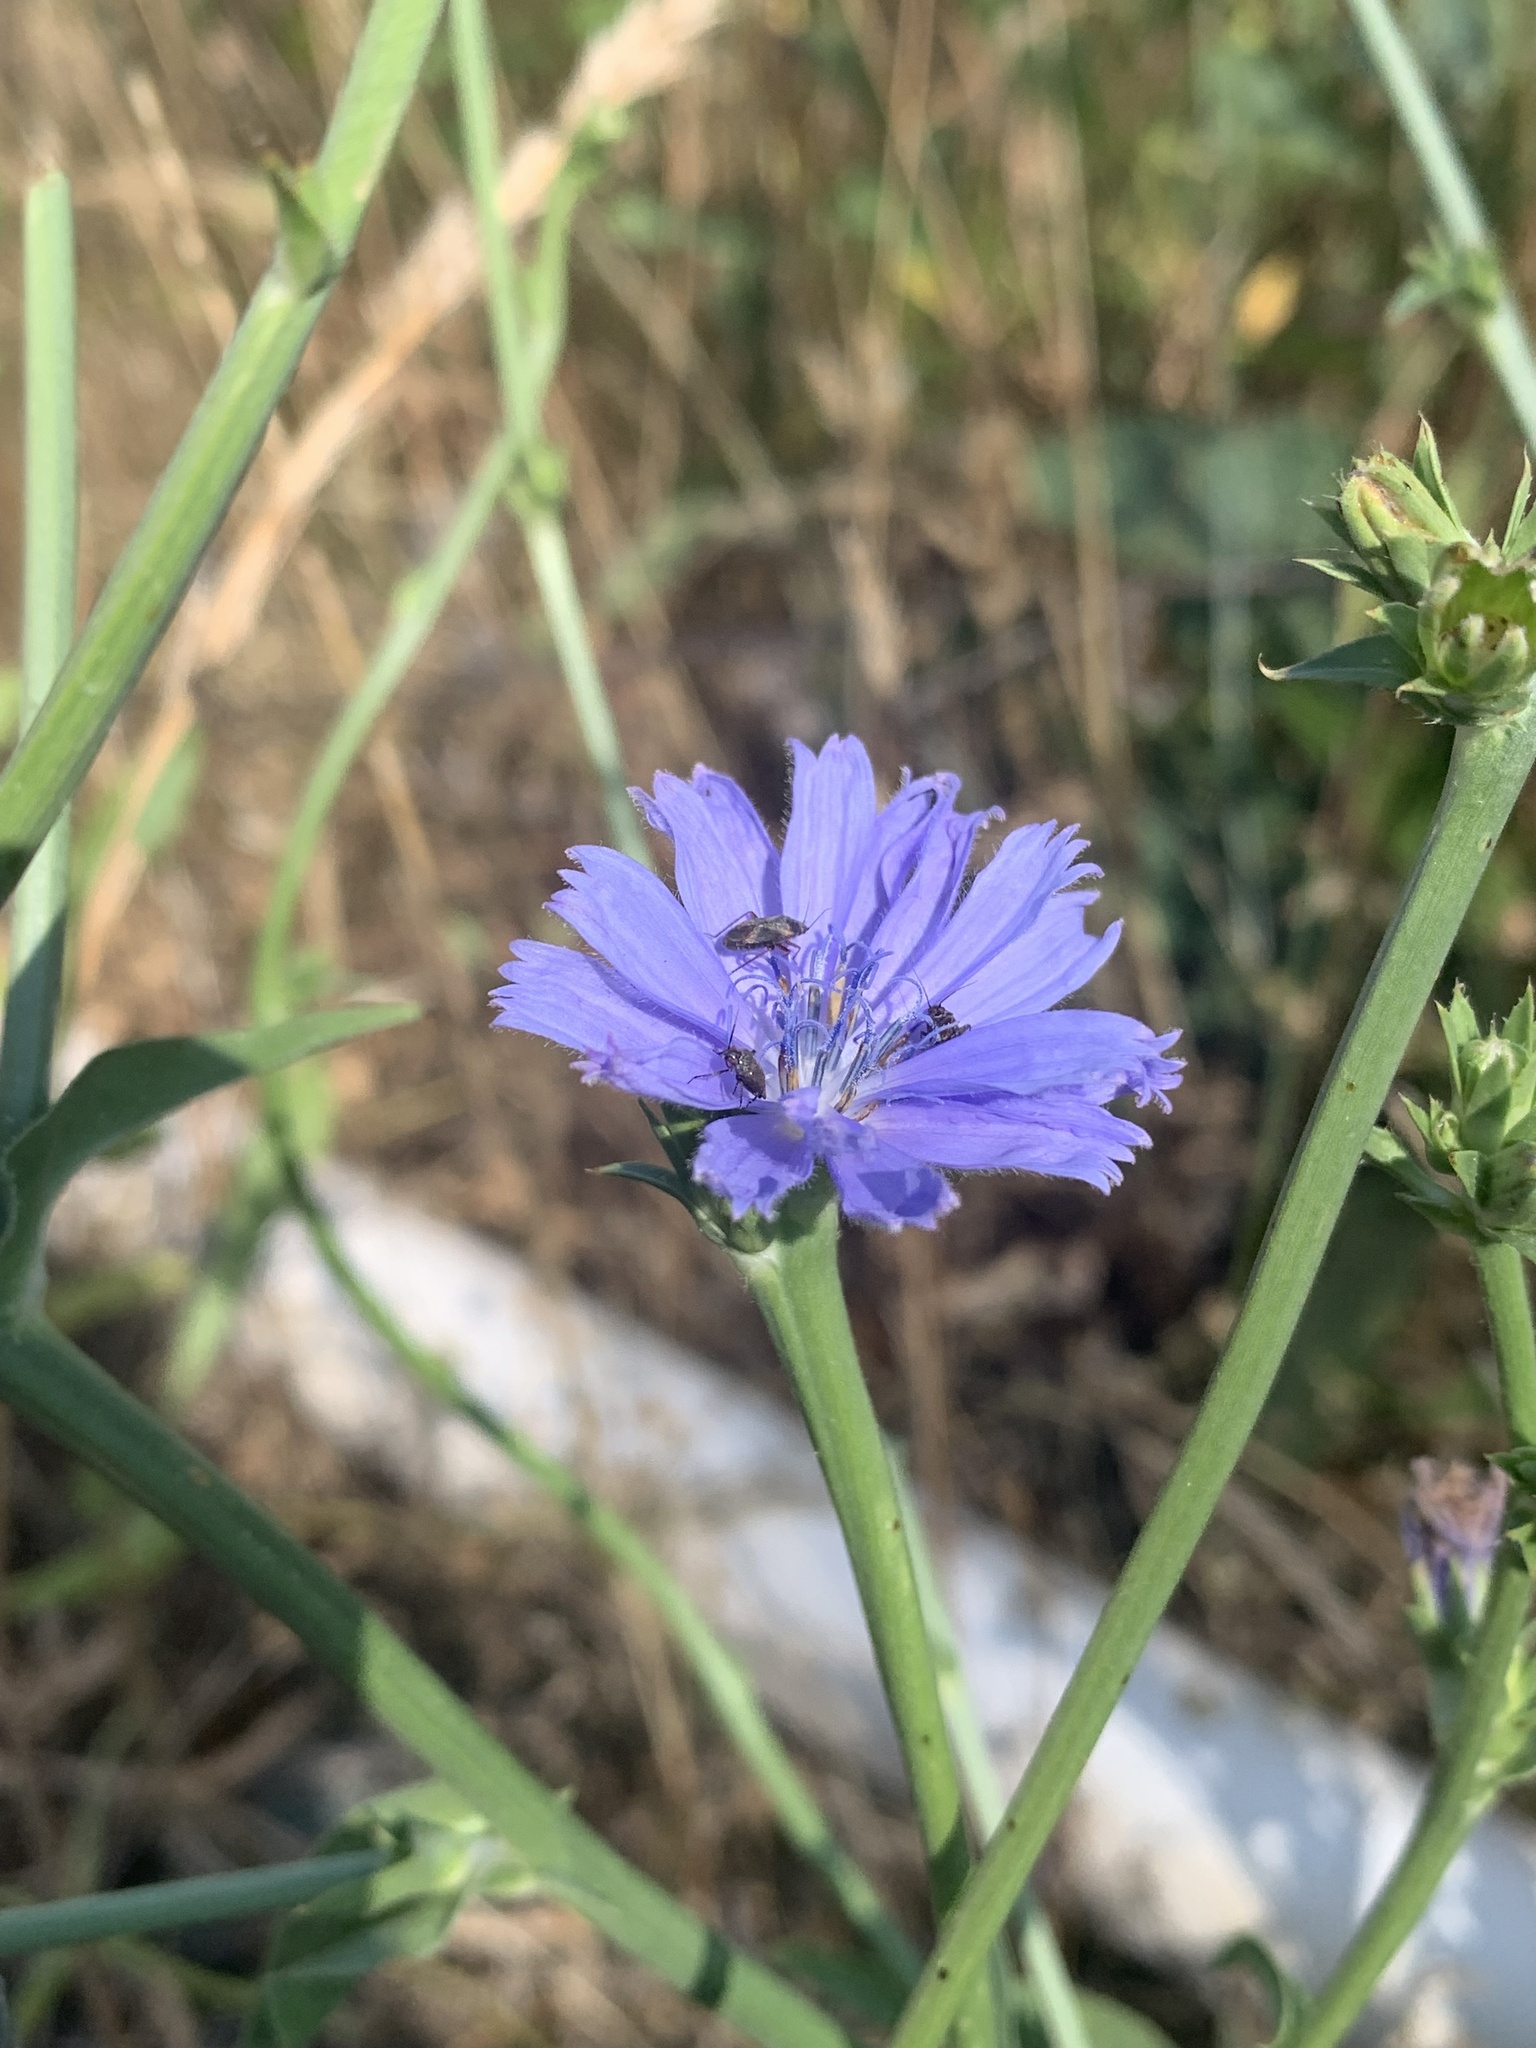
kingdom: Plantae
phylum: Tracheophyta
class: Magnoliopsida
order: Asterales
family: Asteraceae
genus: Cichorium
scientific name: Cichorium intybus
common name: Chicory
